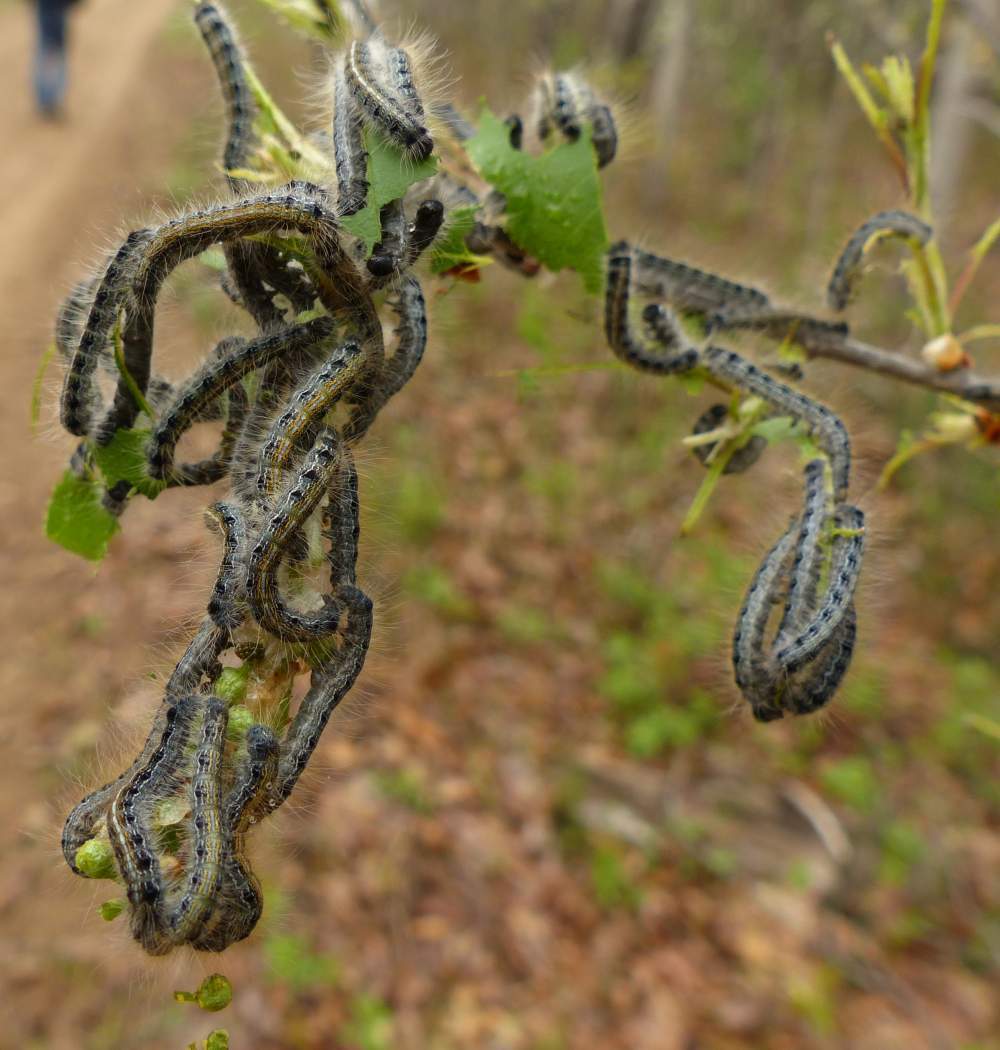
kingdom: Animalia
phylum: Arthropoda
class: Insecta
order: Lepidoptera
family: Lasiocampidae
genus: Malacosoma
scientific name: Malacosoma americana
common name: Eastern tent caterpillar moth
